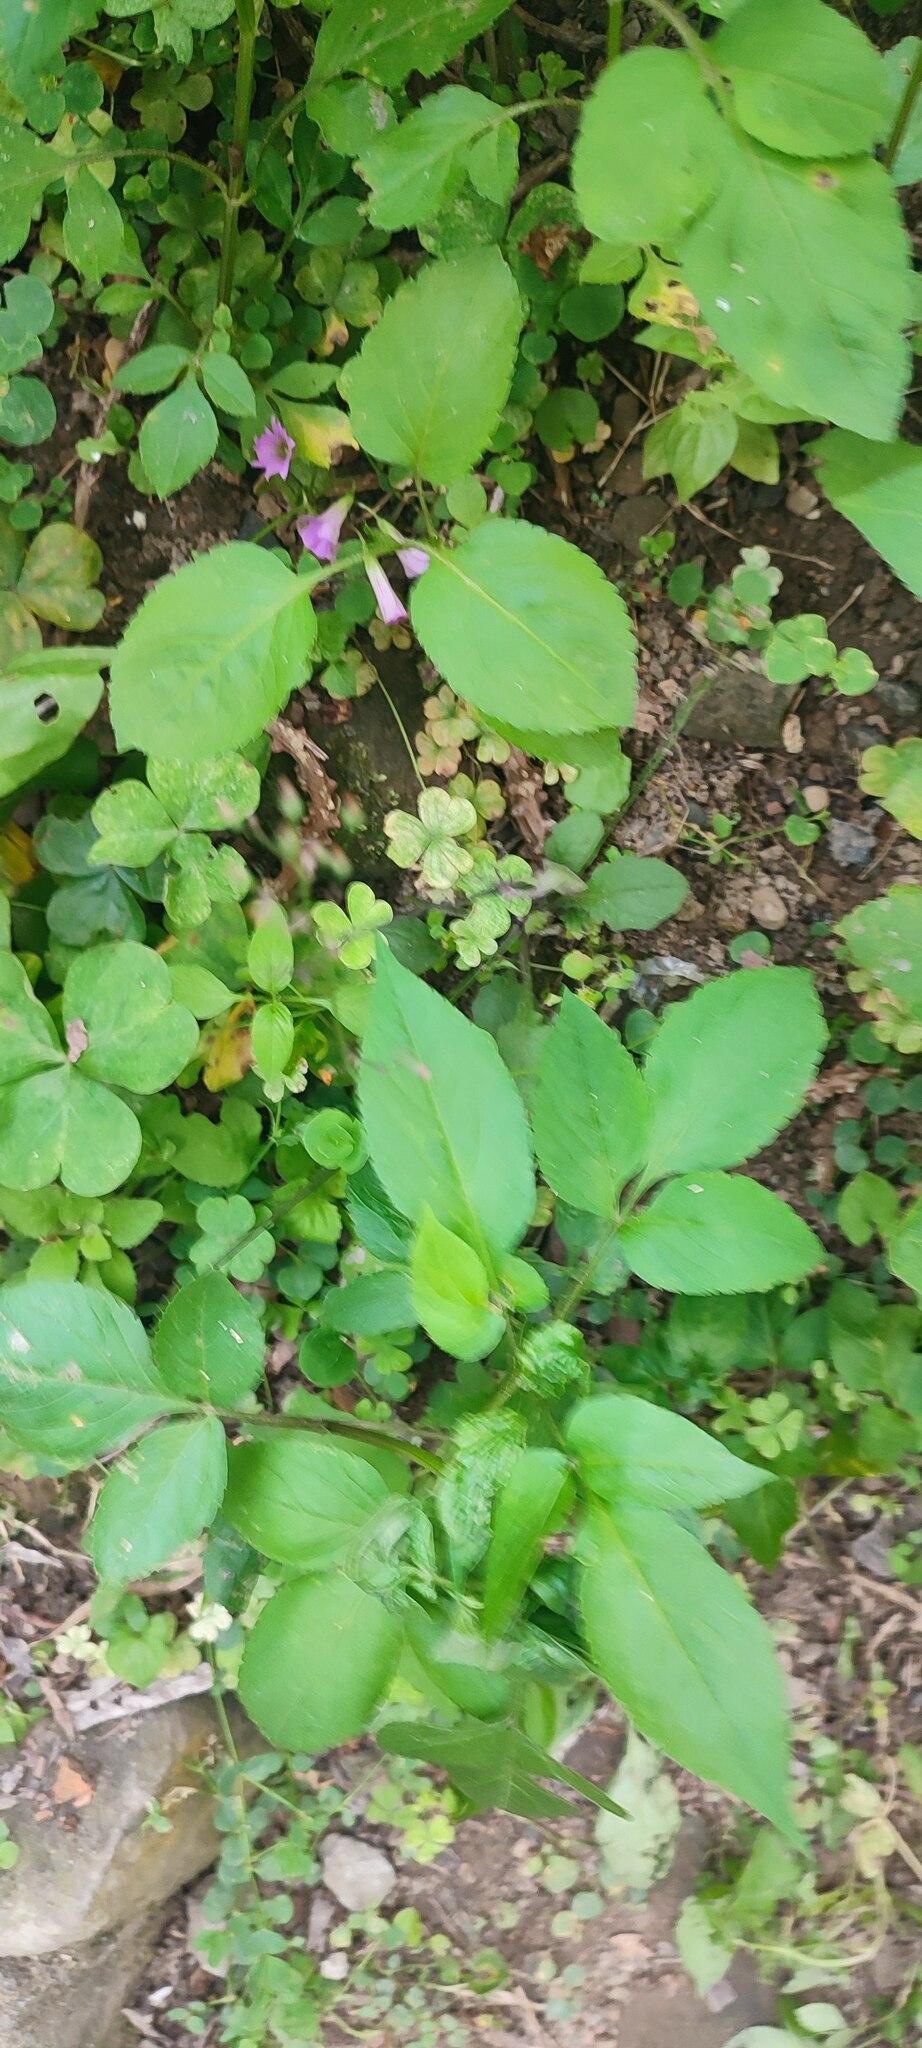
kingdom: Plantae
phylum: Tracheophyta
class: Magnoliopsida
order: Asterales
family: Asteraceae
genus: Bidens
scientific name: Bidens alba
